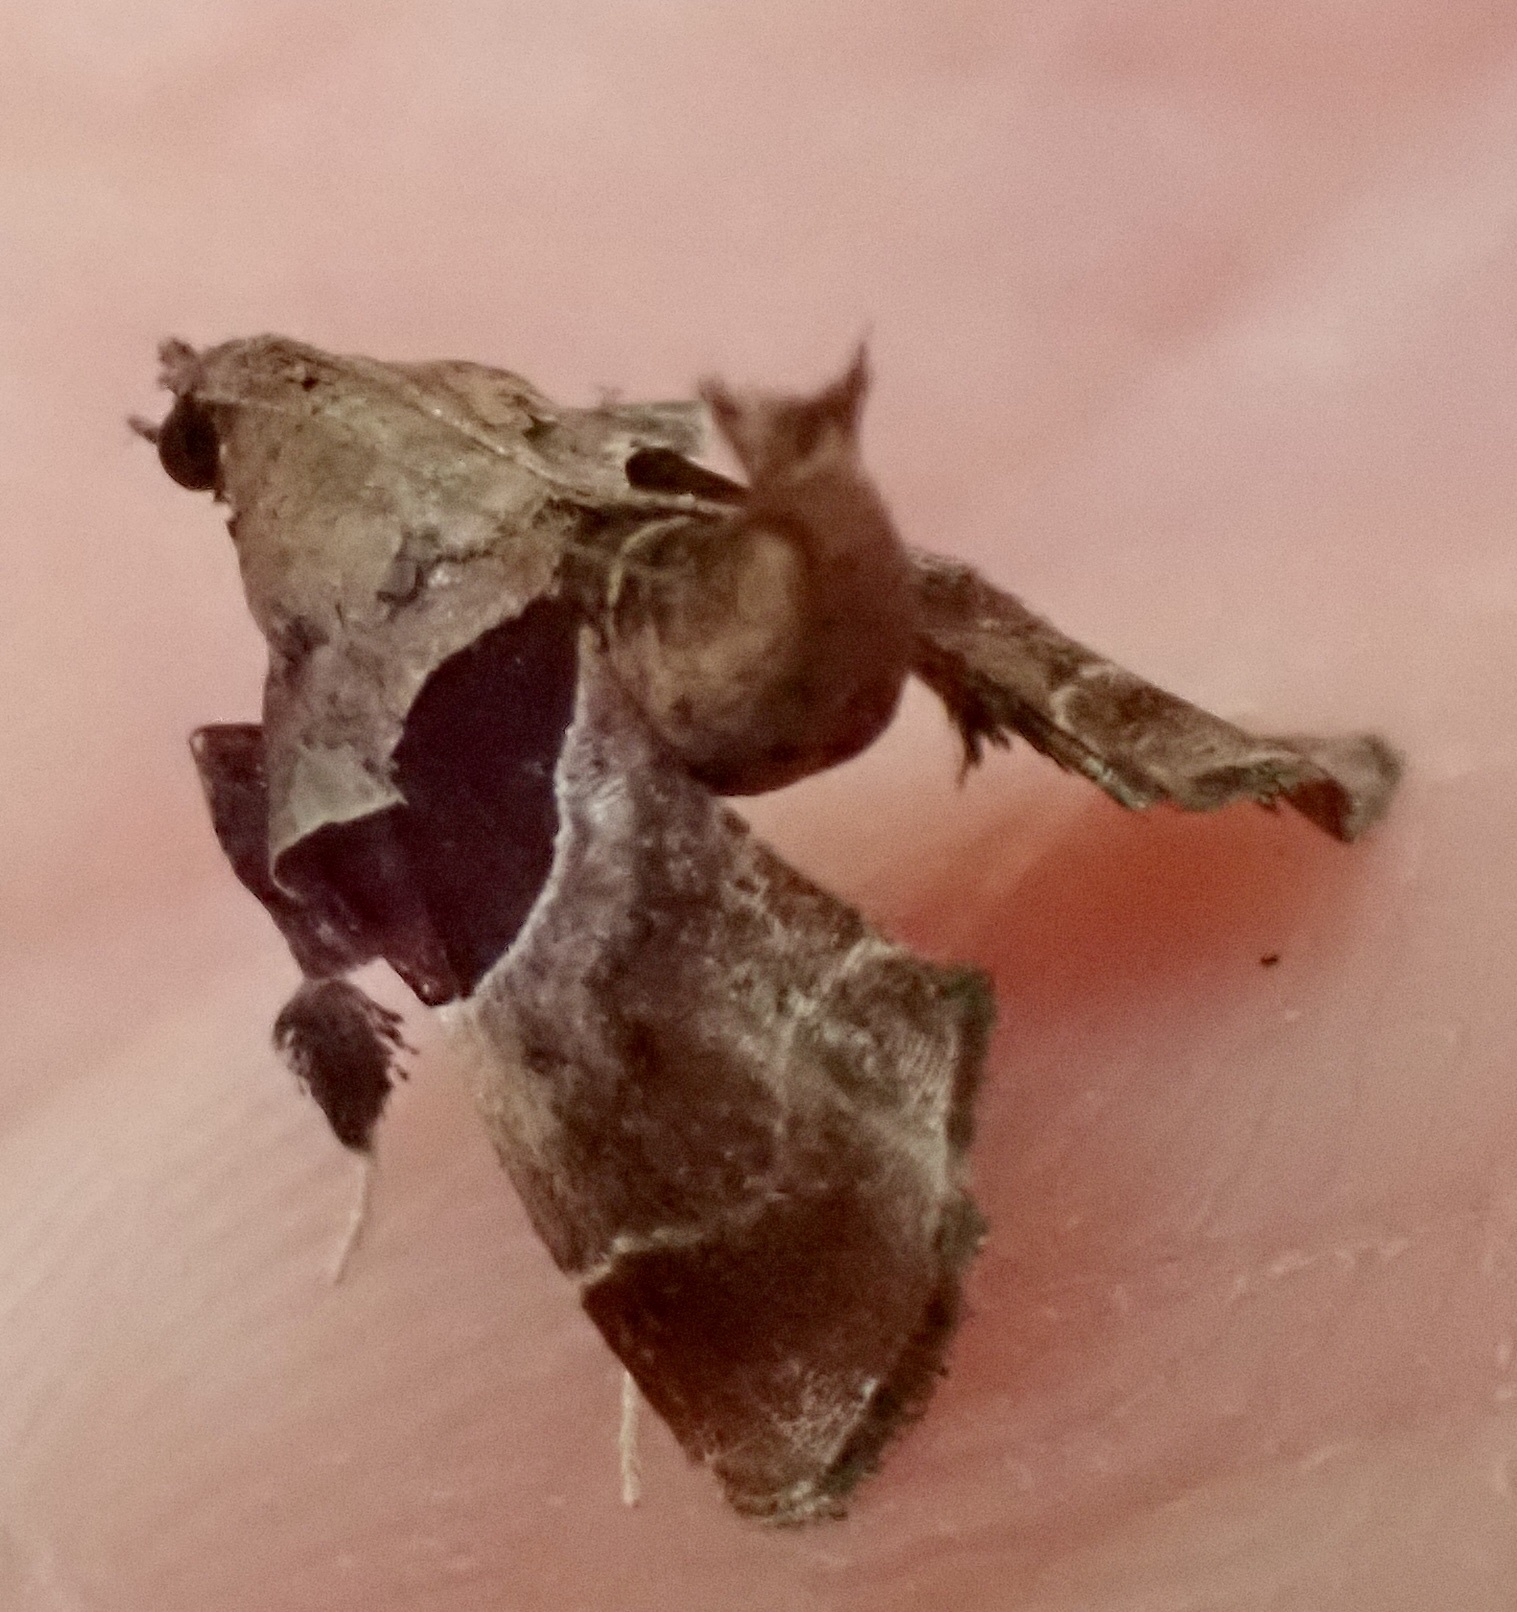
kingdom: Animalia
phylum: Arthropoda
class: Insecta
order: Lepidoptera
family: Pyralidae
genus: Tosale
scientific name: Tosale oviplagalis
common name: Dimorphic tosale moth
